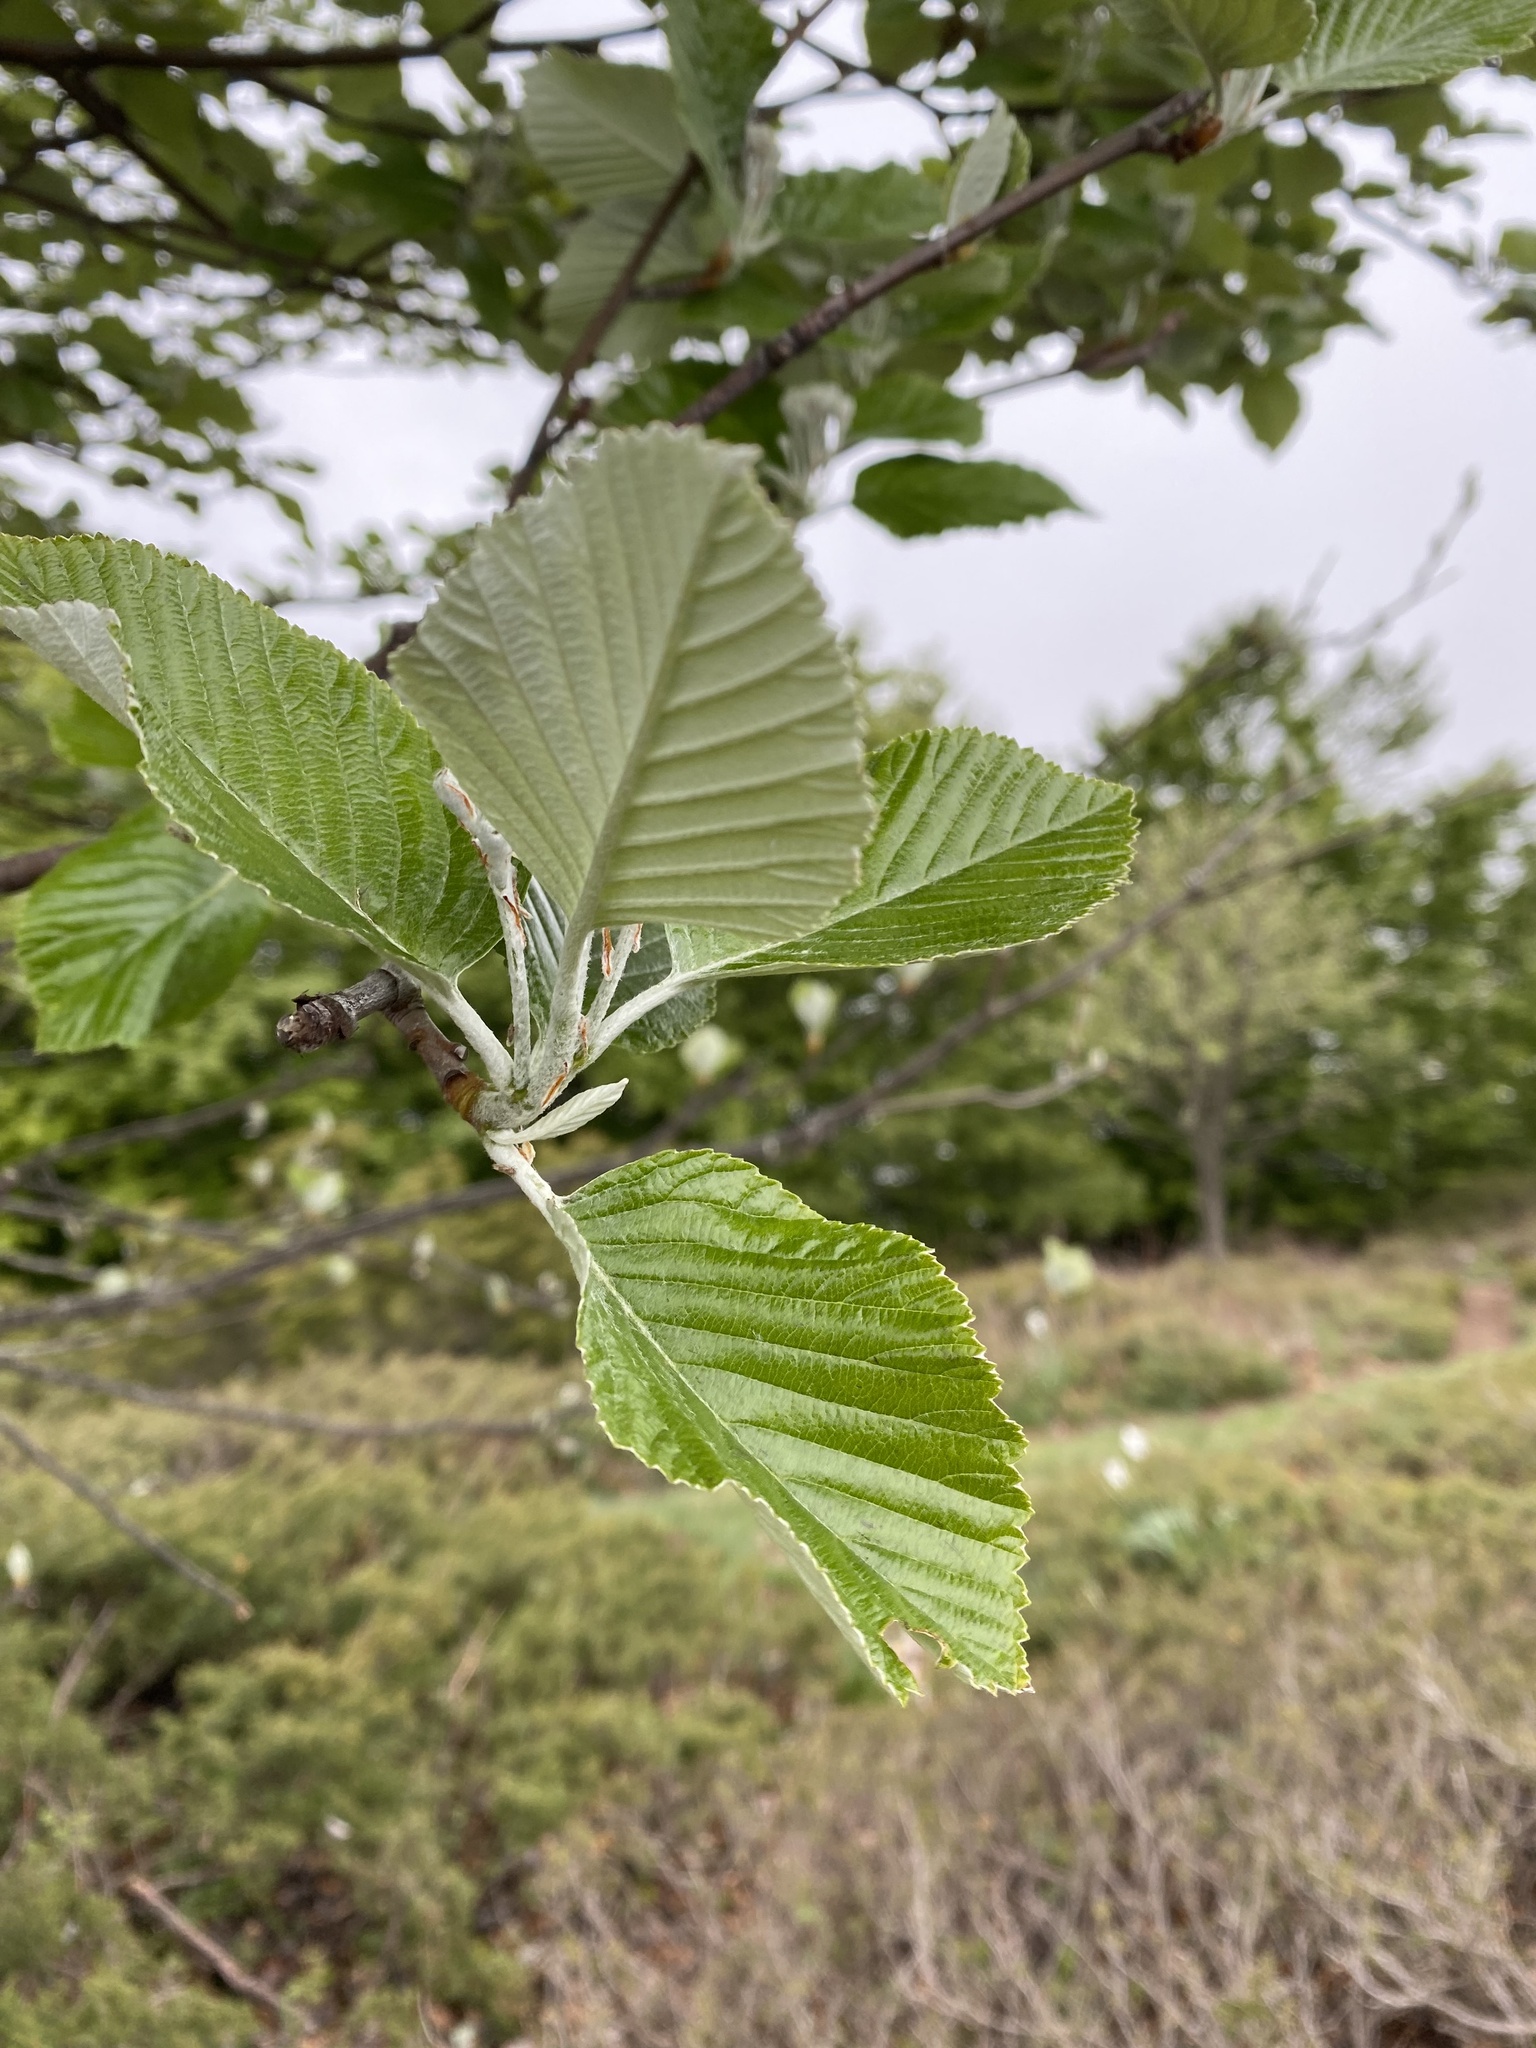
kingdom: Plantae
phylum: Tracheophyta
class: Magnoliopsida
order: Rosales
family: Rosaceae
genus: Aria
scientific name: Aria edulis
